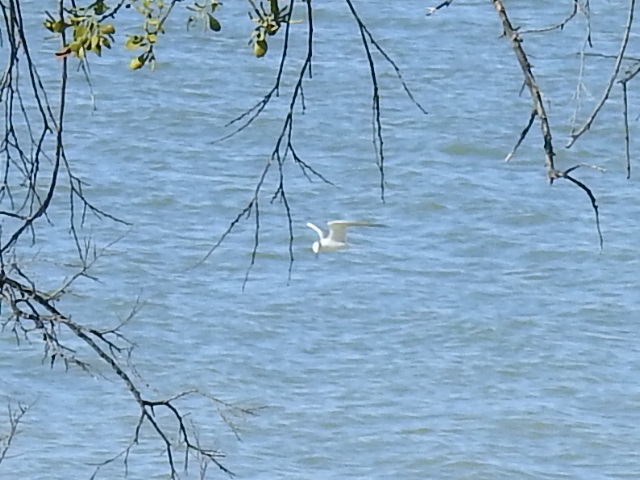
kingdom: Animalia
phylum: Chordata
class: Aves
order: Charadriiformes
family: Laridae
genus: Sterna
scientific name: Sterna forsteri
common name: Forster's tern
